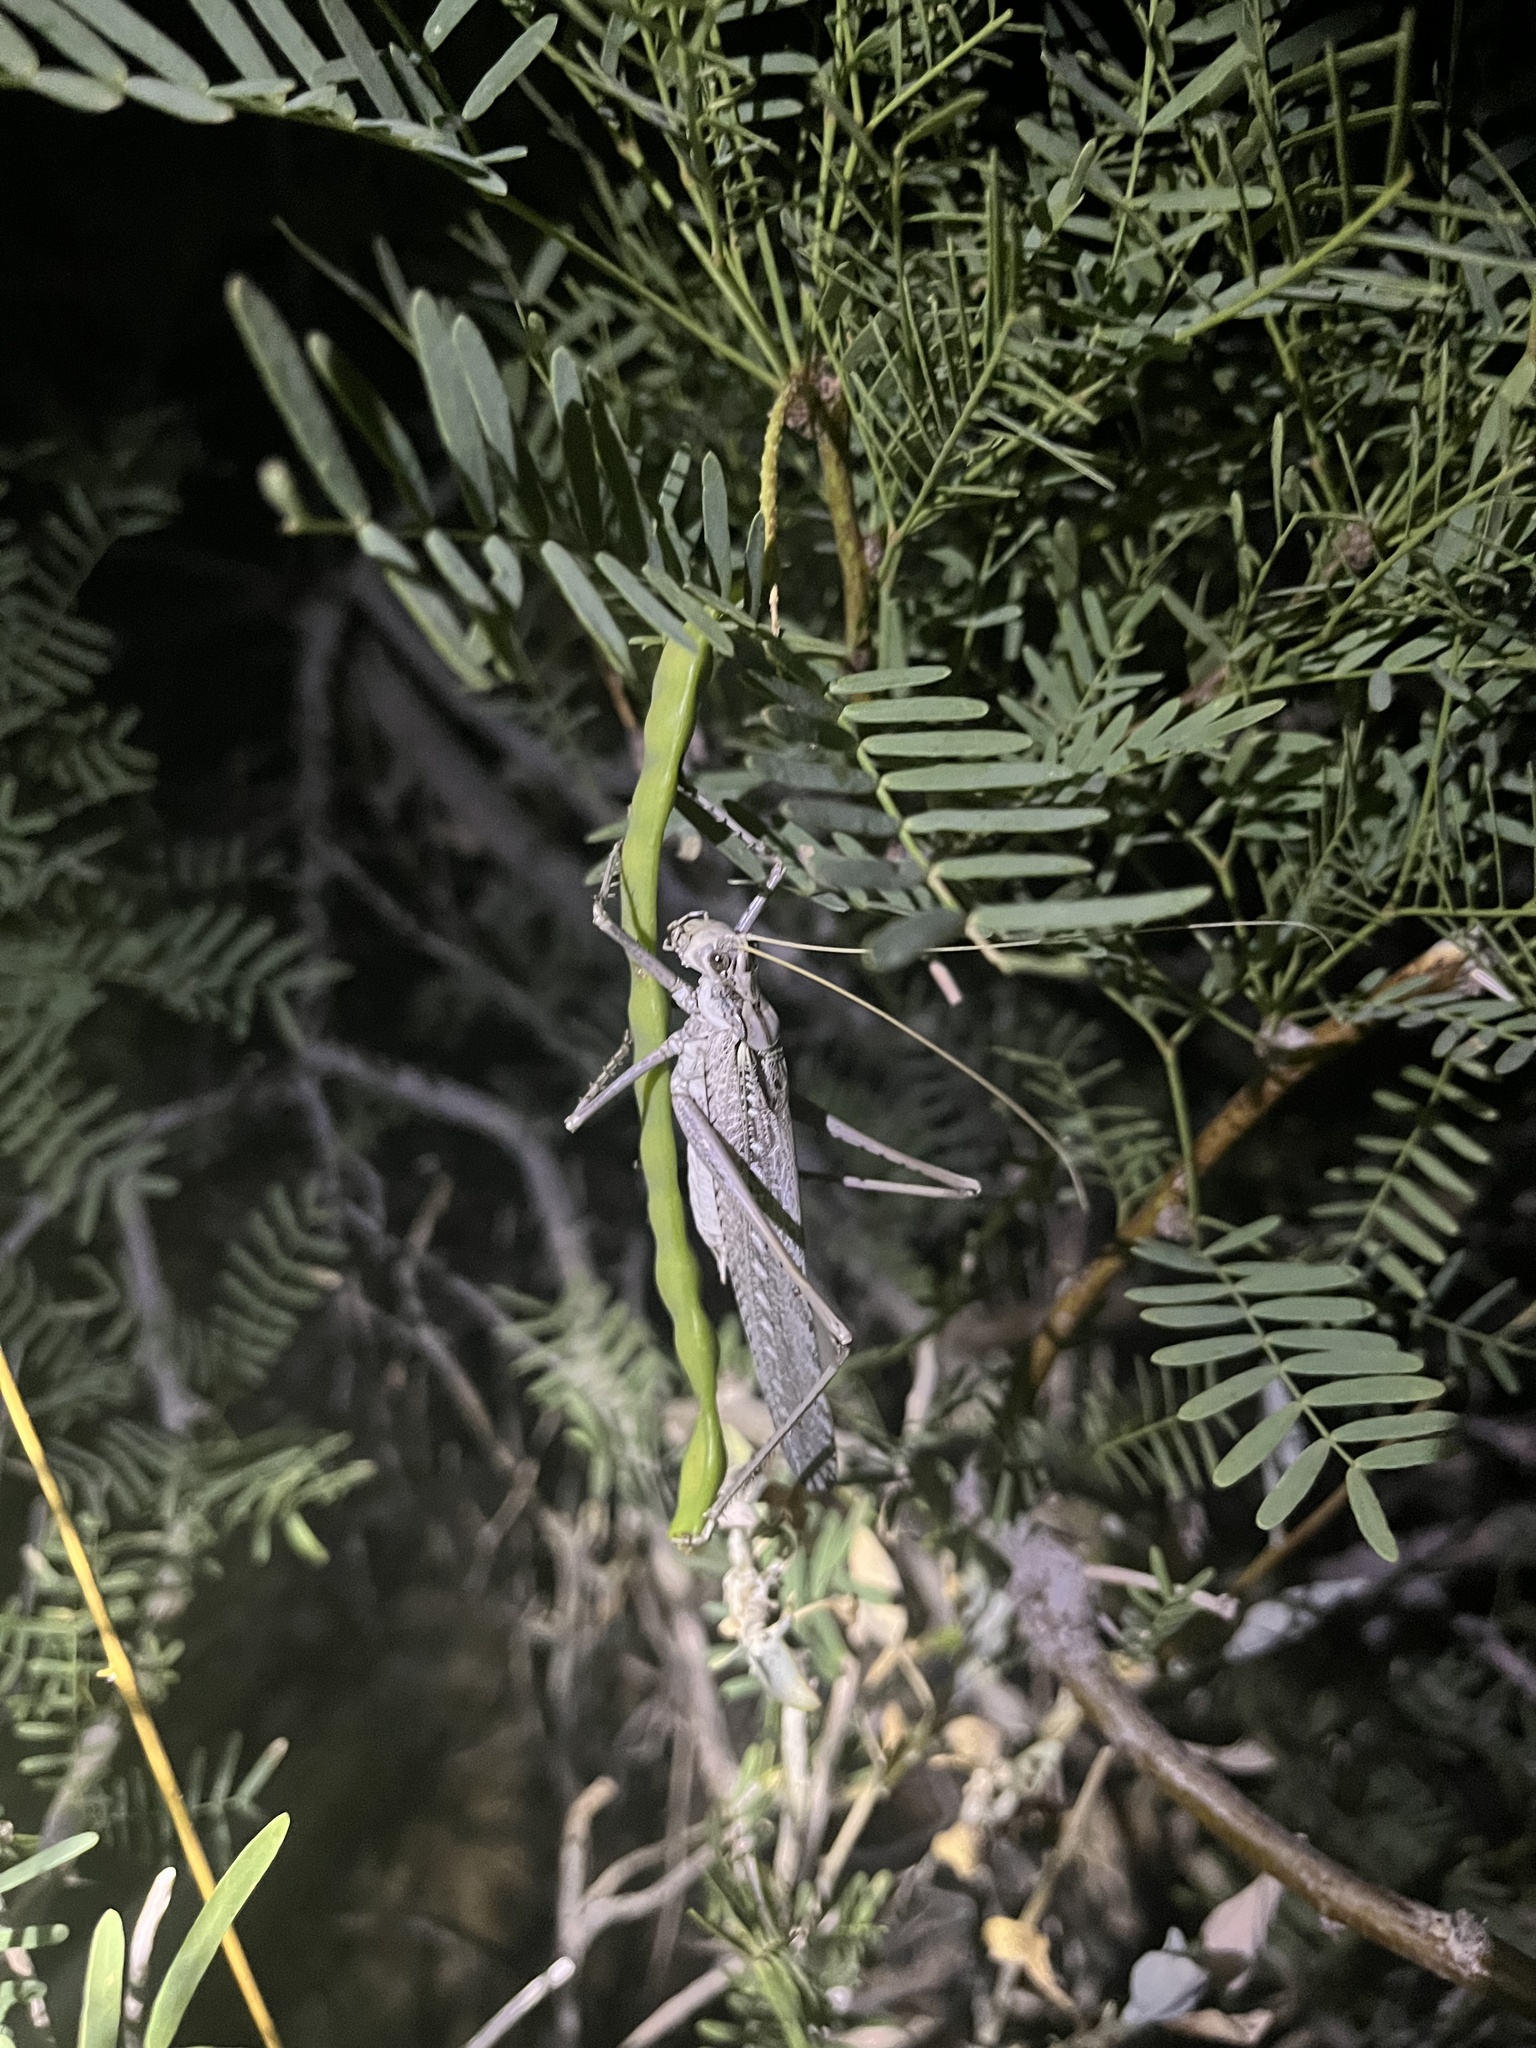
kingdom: Animalia
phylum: Arthropoda
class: Insecta
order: Orthoptera
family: Tettigoniidae
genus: Capnobotes
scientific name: Capnobotes fuliginosus
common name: Sooty longwing
